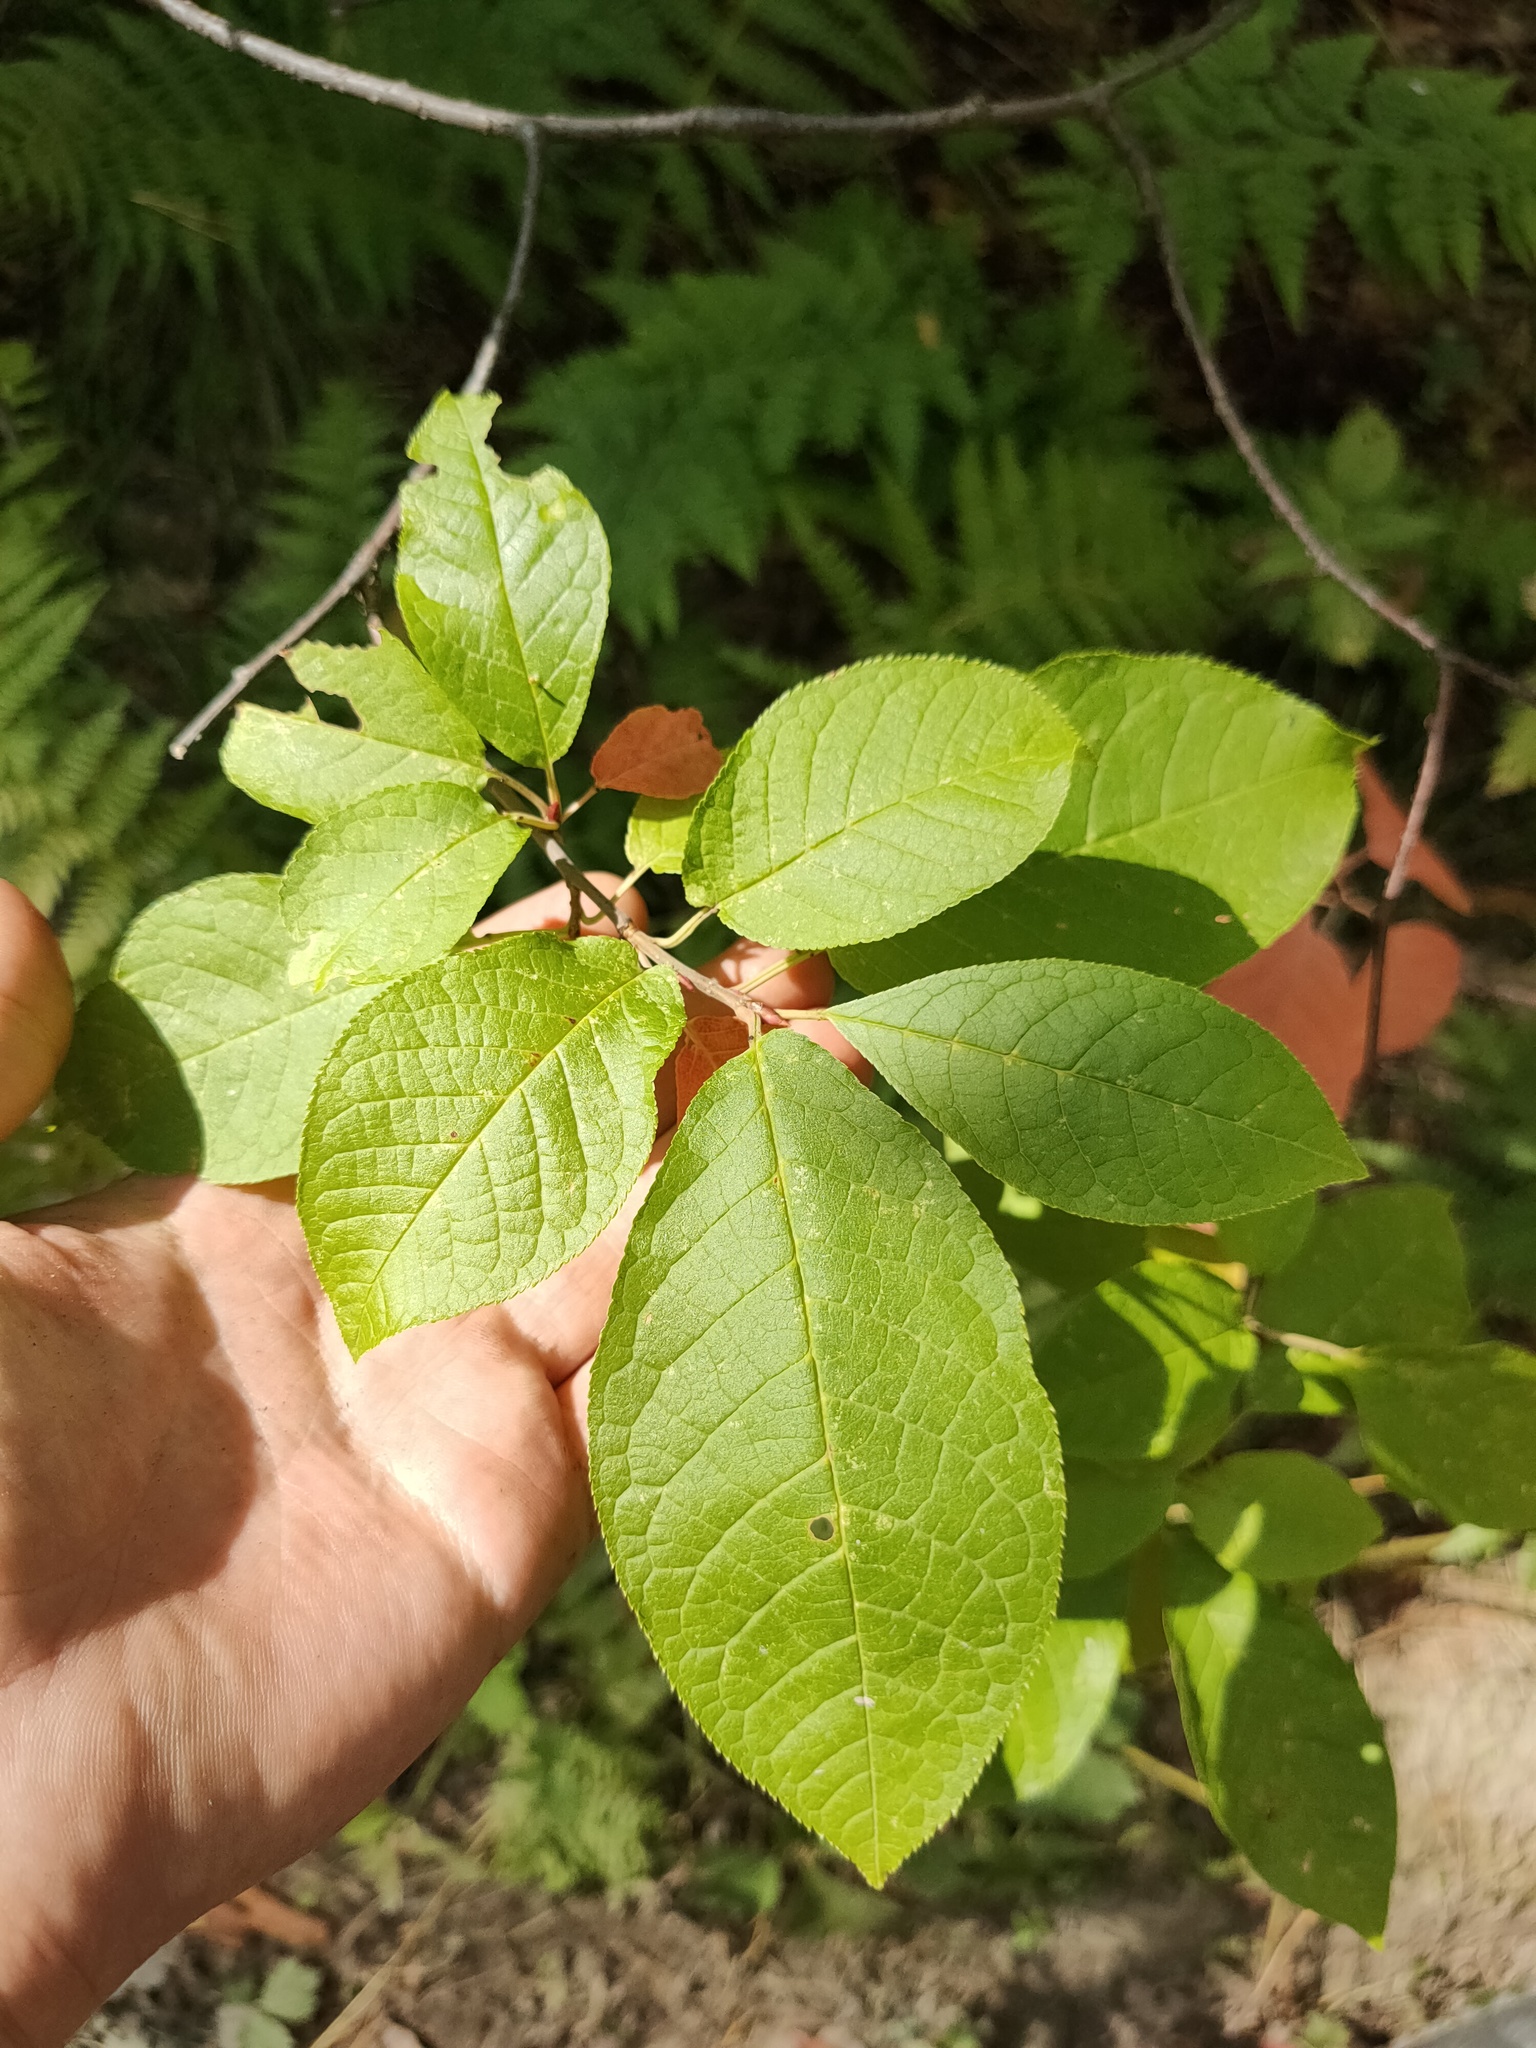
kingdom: Plantae
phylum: Tracheophyta
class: Magnoliopsida
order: Rosales
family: Rosaceae
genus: Prunus
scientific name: Prunus padus
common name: Bird cherry
